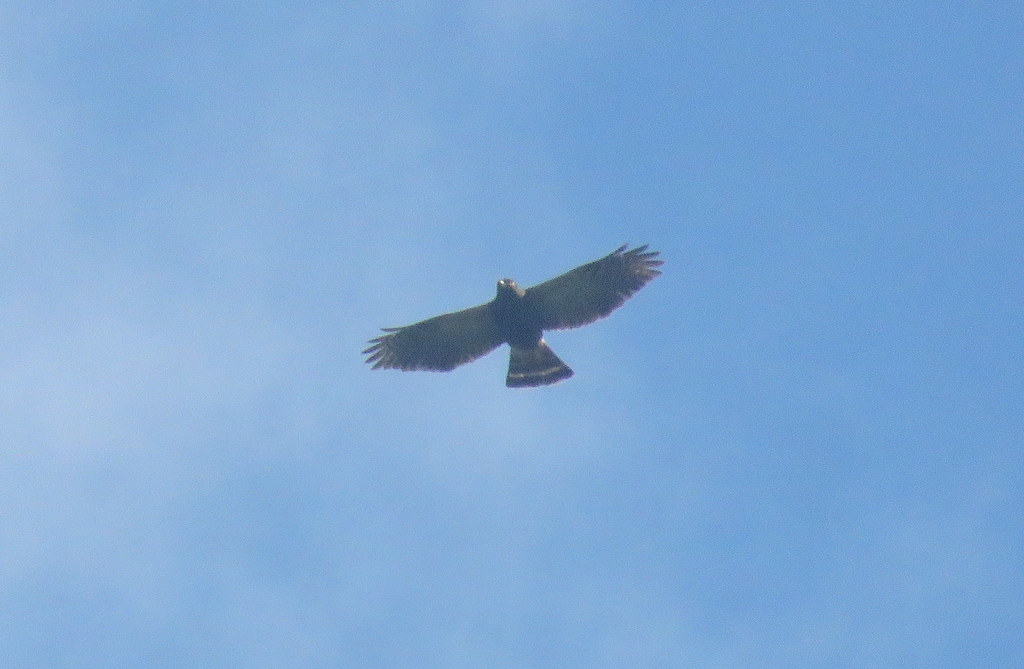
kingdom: Animalia
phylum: Chordata
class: Aves
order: Accipitriformes
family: Accipitridae
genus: Percnohierax
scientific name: Percnohierax leucorrhous
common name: White-rumped hawk
